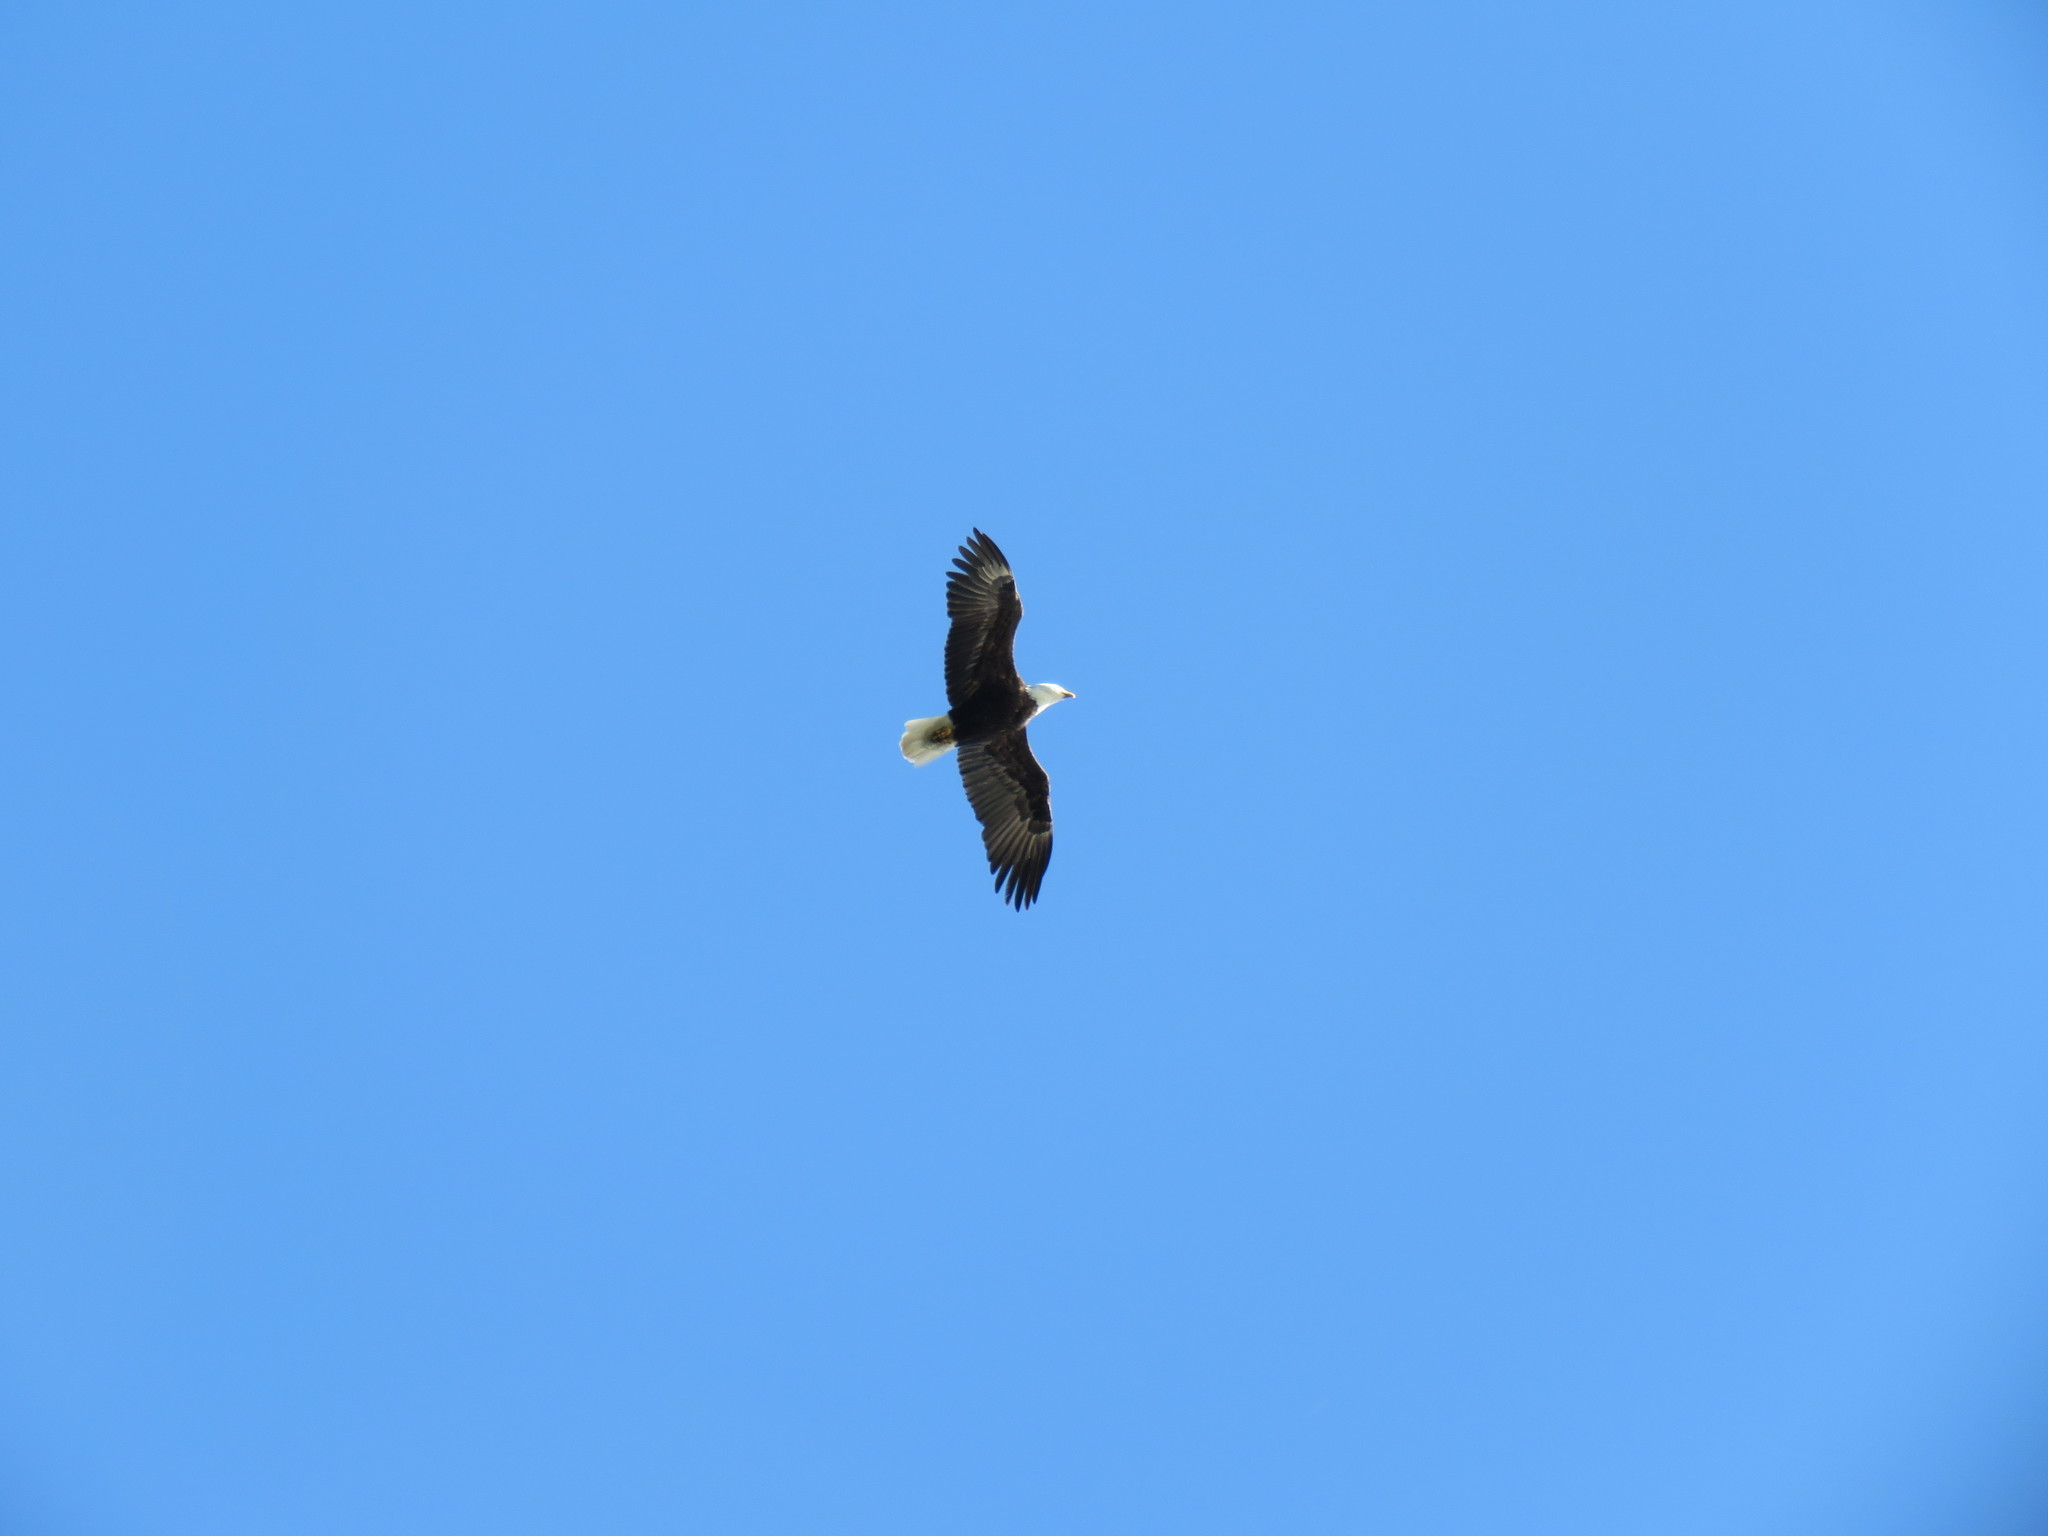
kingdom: Animalia
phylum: Chordata
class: Aves
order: Accipitriformes
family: Accipitridae
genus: Haliaeetus
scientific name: Haliaeetus leucocephalus
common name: Bald eagle
